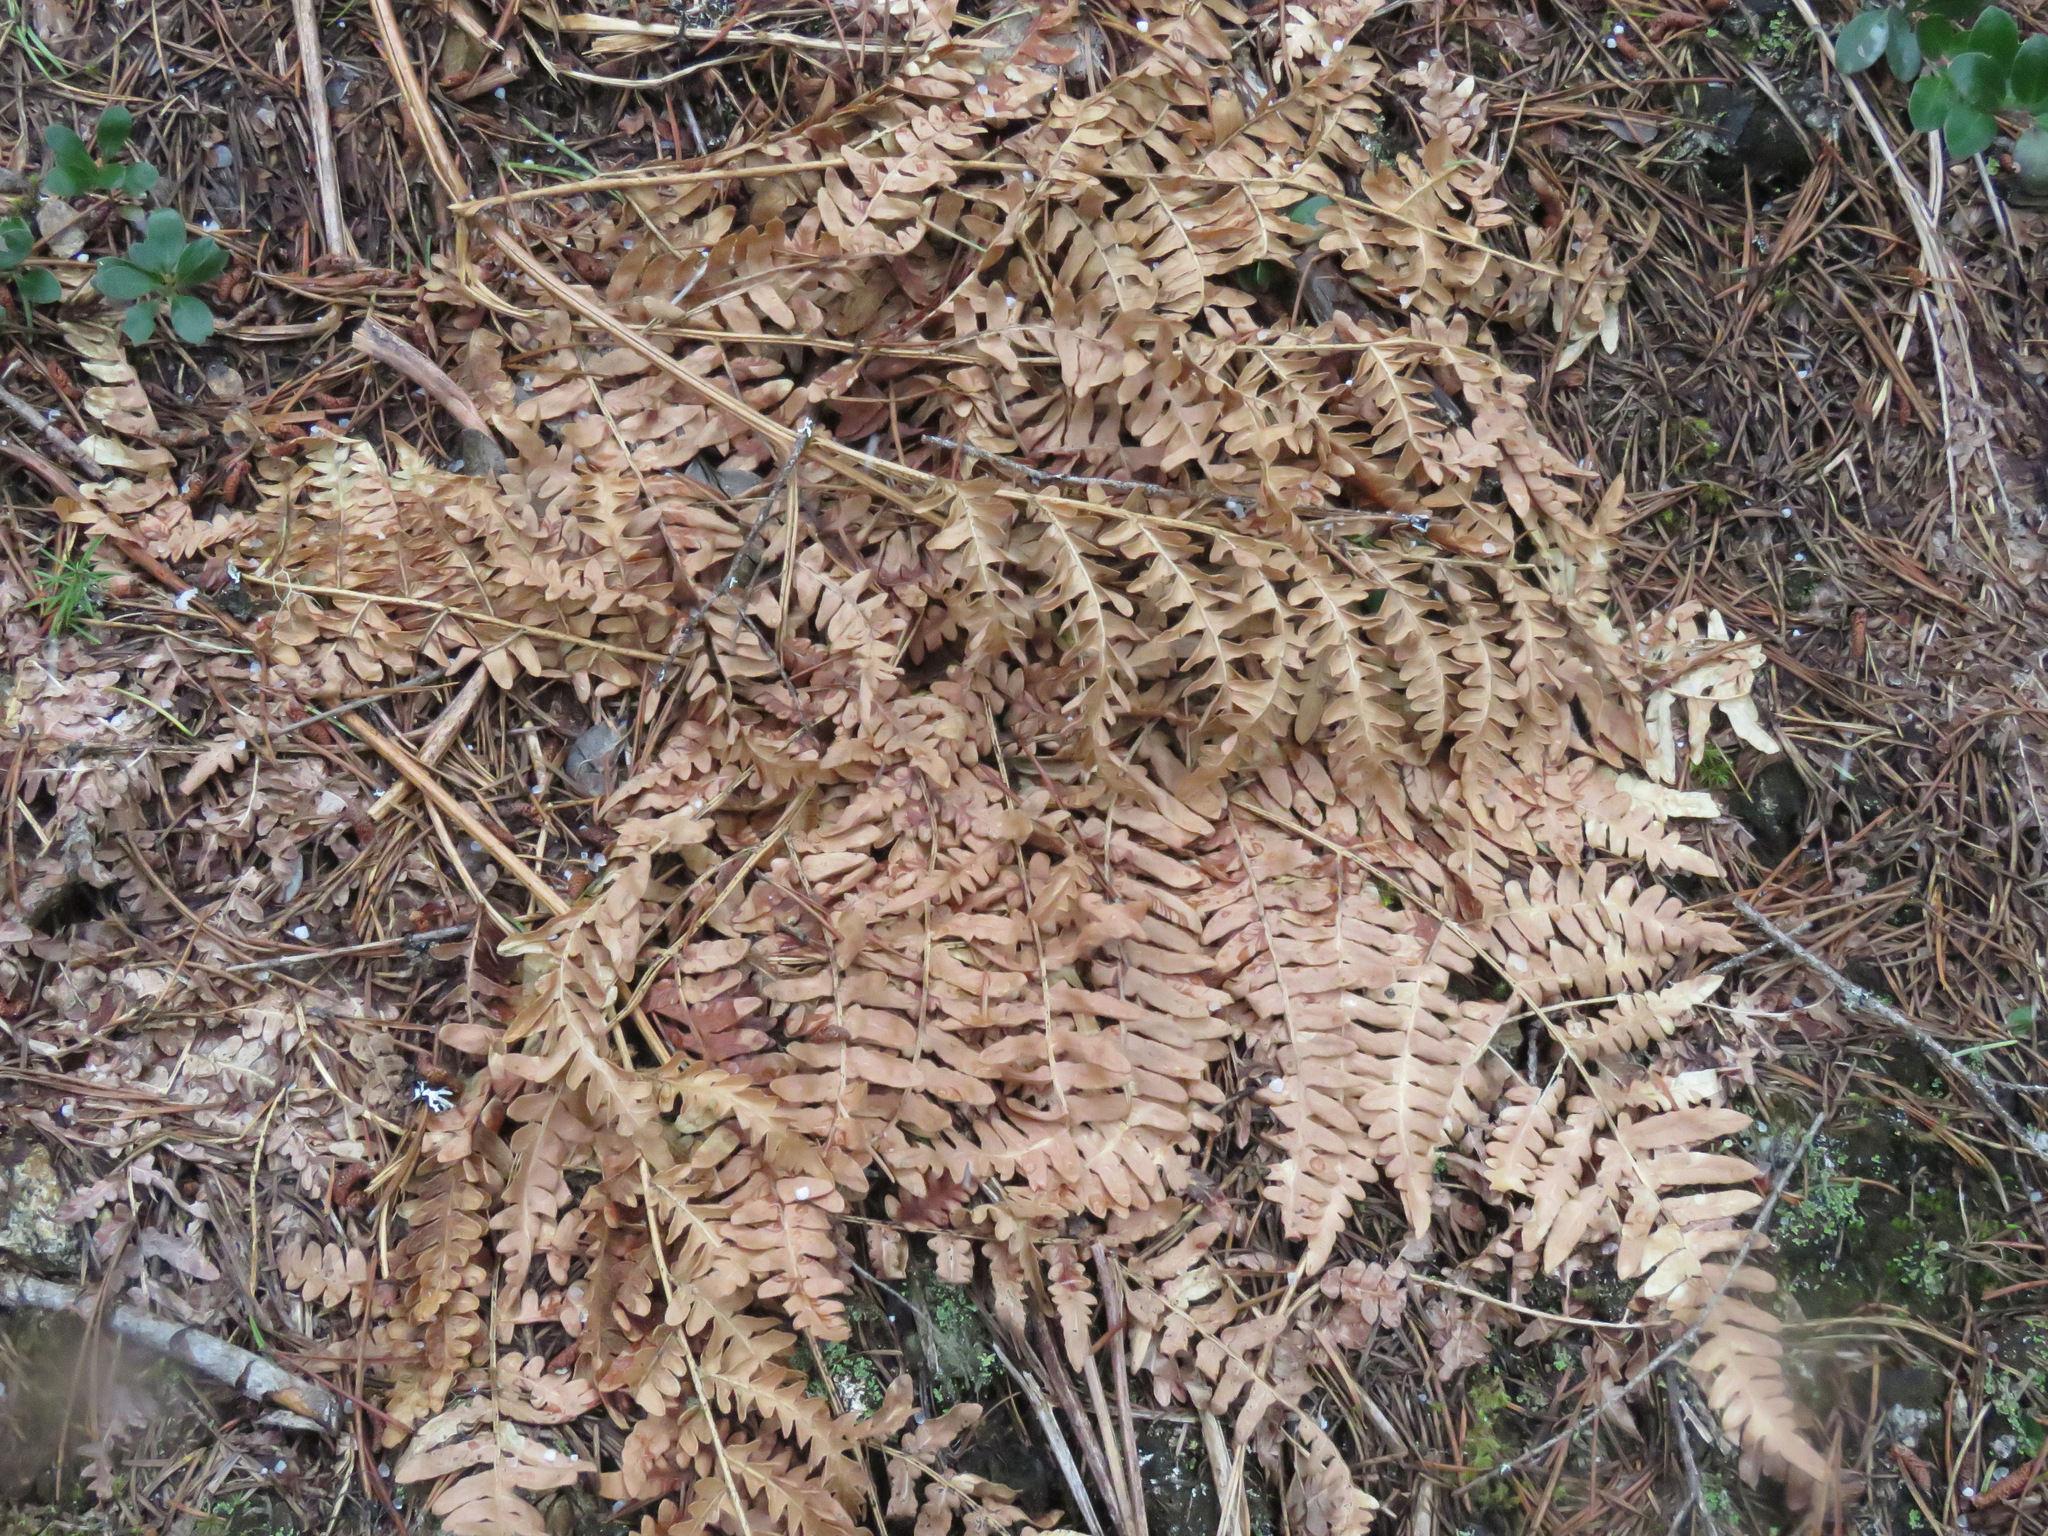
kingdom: Plantae
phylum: Tracheophyta
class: Polypodiopsida
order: Polypodiales
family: Dennstaedtiaceae
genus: Pteridium
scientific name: Pteridium aquilinum
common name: Bracken
